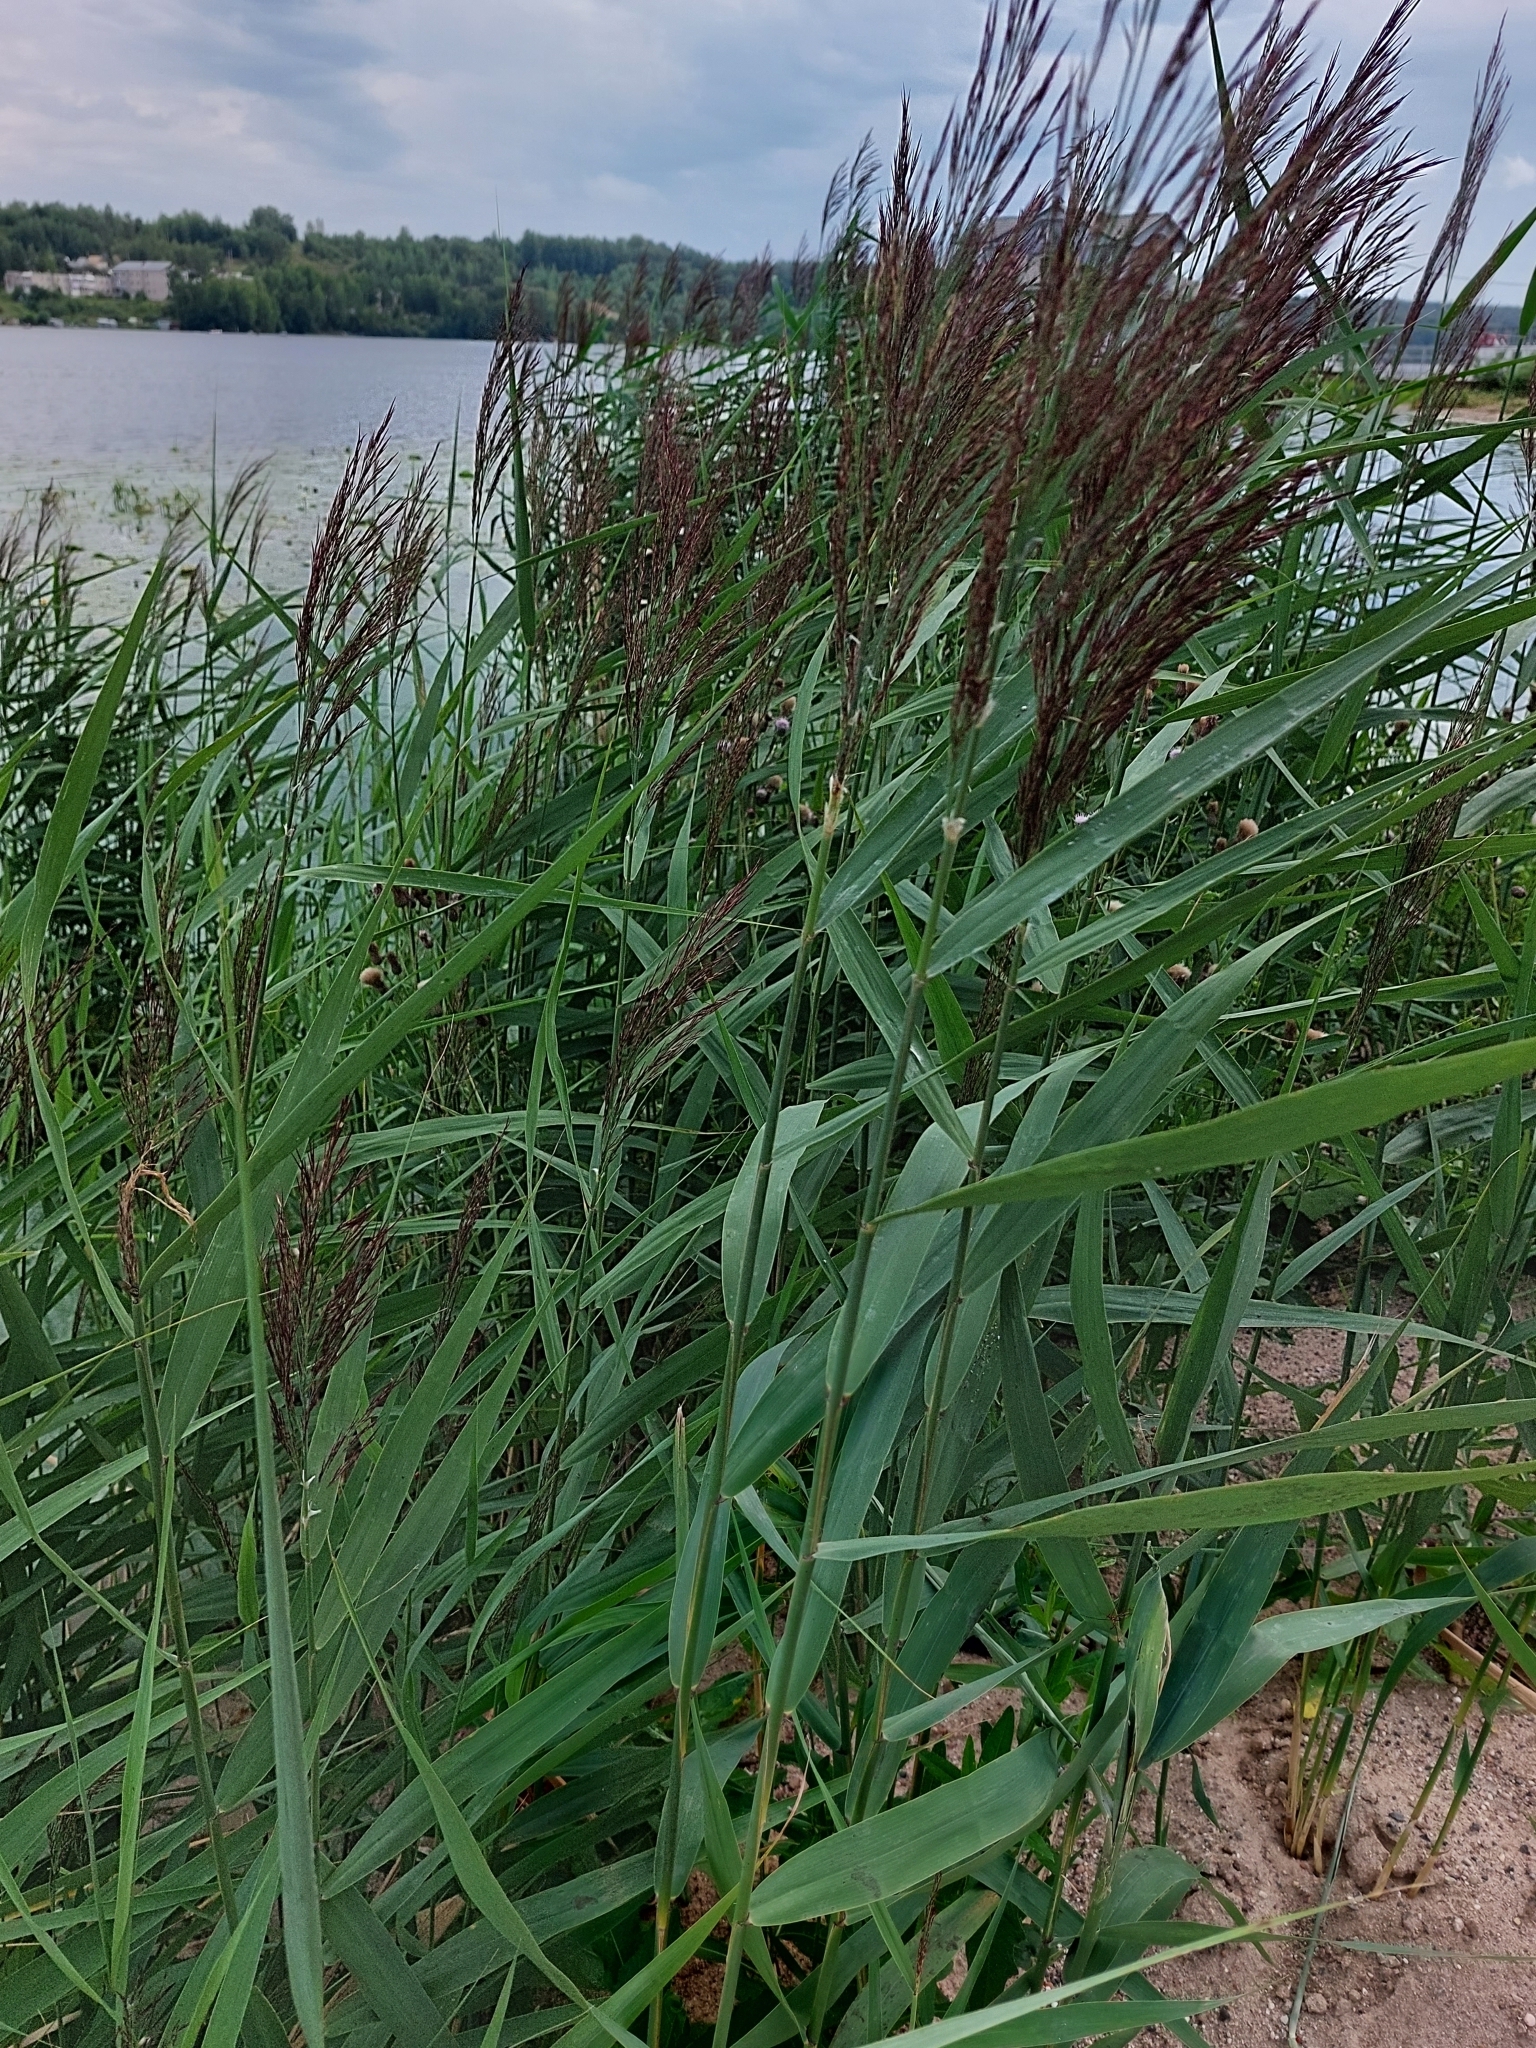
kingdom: Plantae
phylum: Tracheophyta
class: Liliopsida
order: Poales
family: Poaceae
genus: Phragmites
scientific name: Phragmites australis
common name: Common reed
